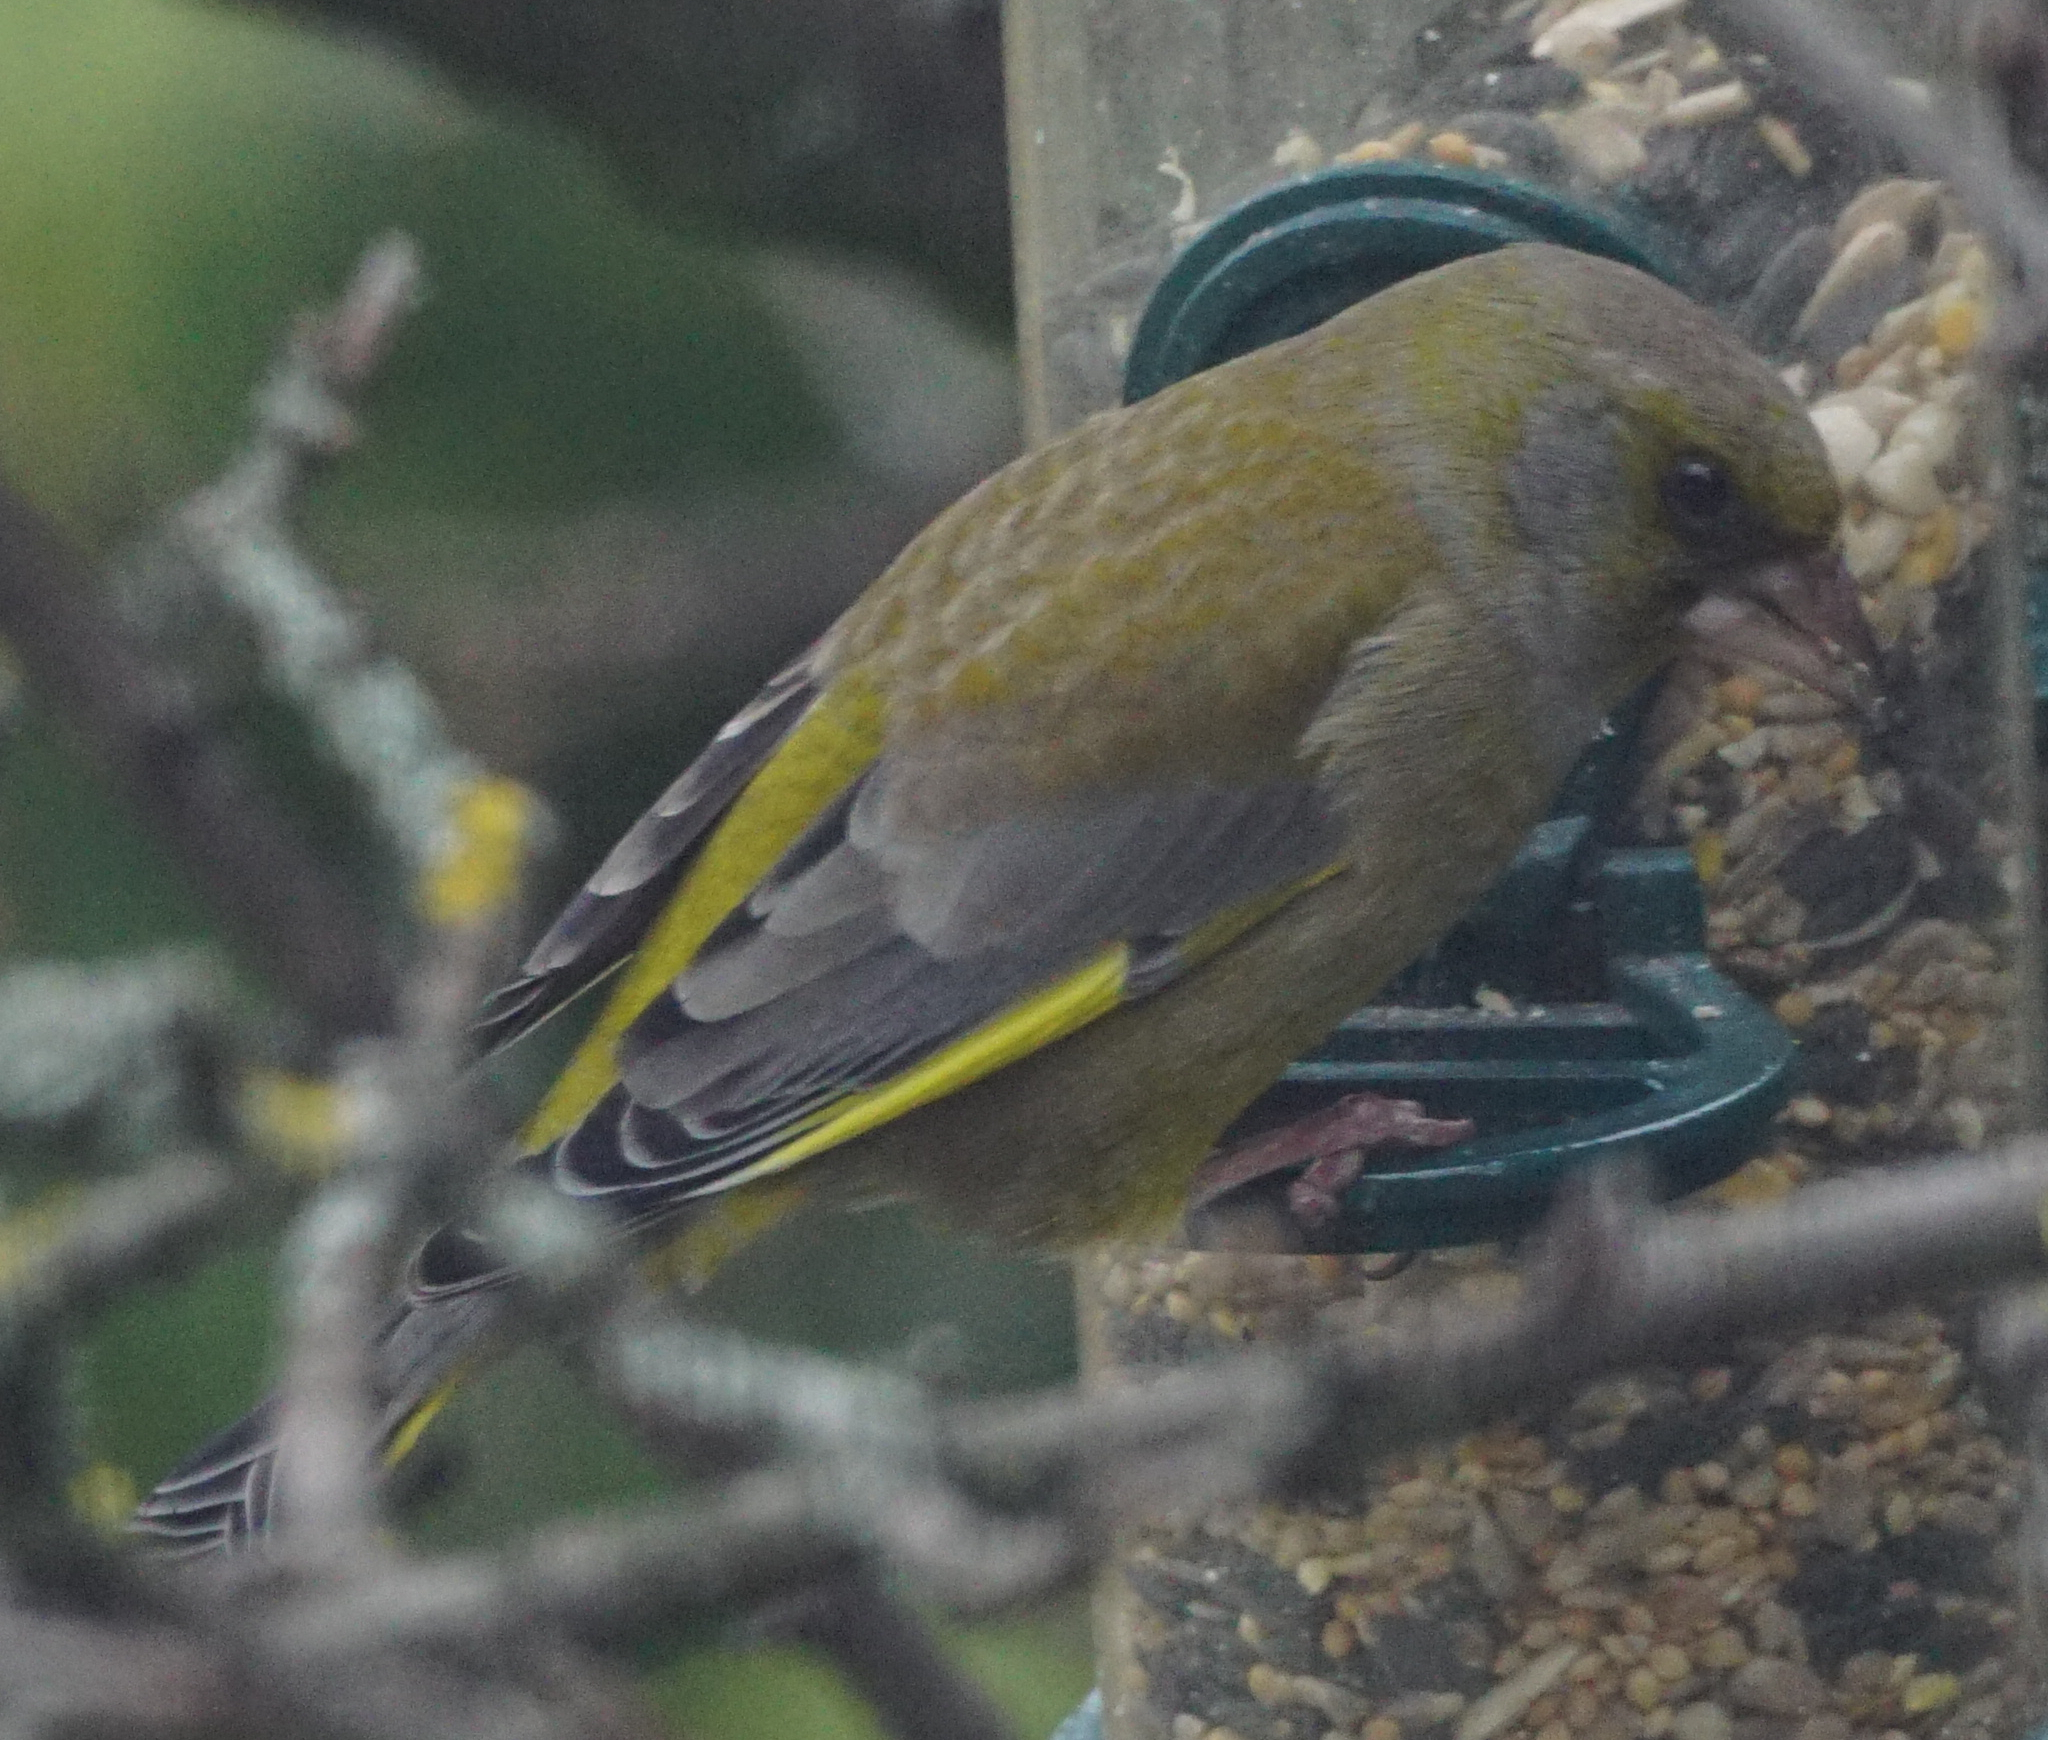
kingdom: Plantae
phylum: Tracheophyta
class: Liliopsida
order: Poales
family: Poaceae
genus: Chloris
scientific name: Chloris chloris
